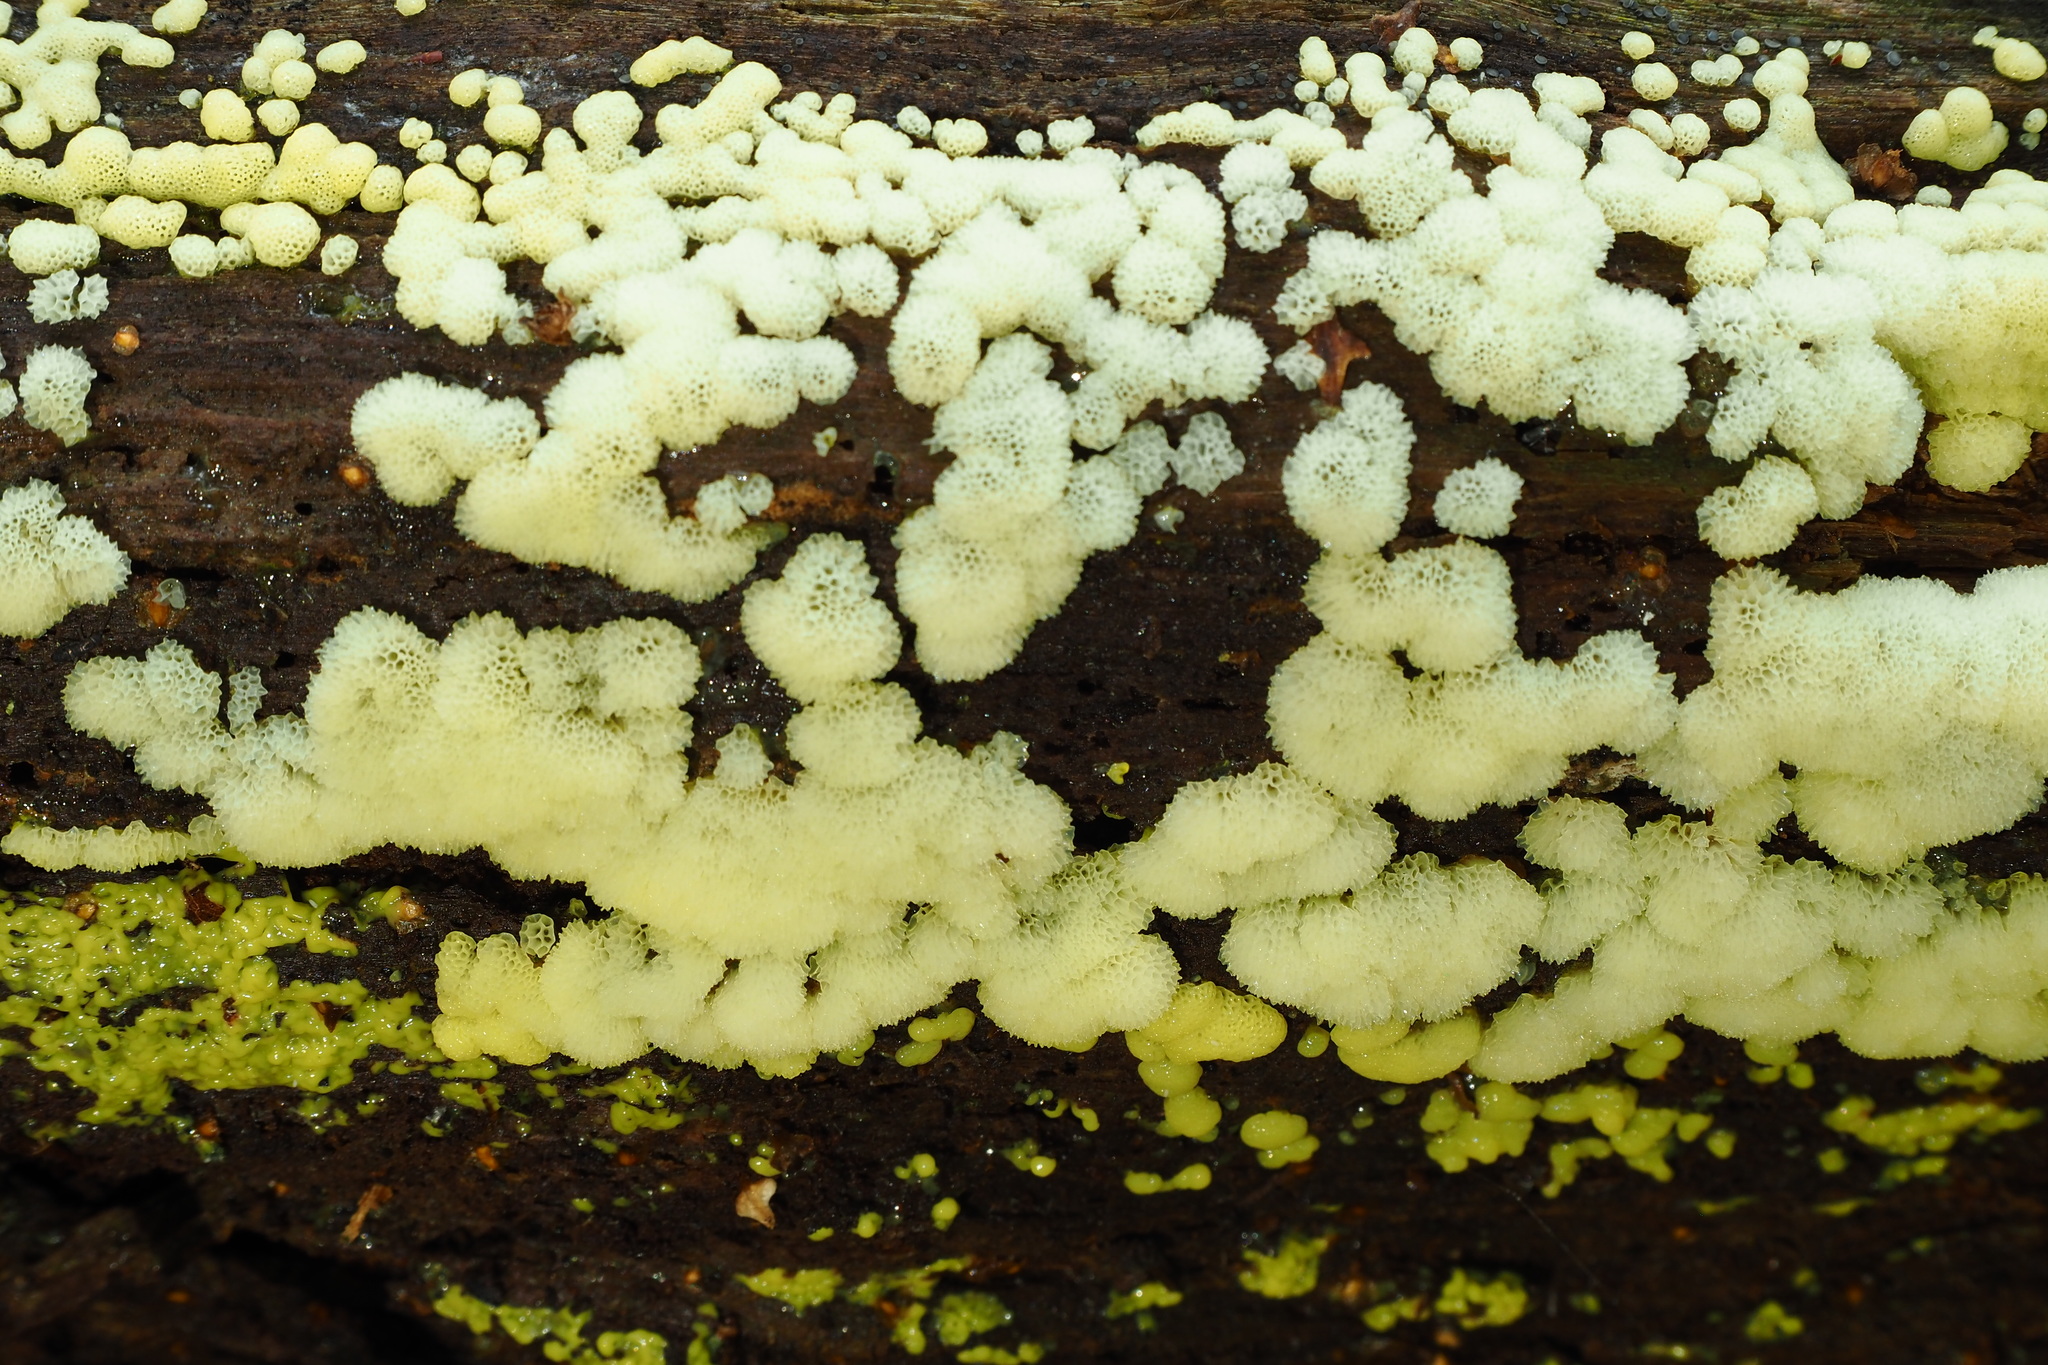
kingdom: Protozoa
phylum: Mycetozoa
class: Protosteliomycetes
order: Ceratiomyxales
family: Ceratiomyxaceae
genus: Ceratiomyxa
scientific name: Ceratiomyxa fruticulosa
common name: Honeycomb coral slime mold
